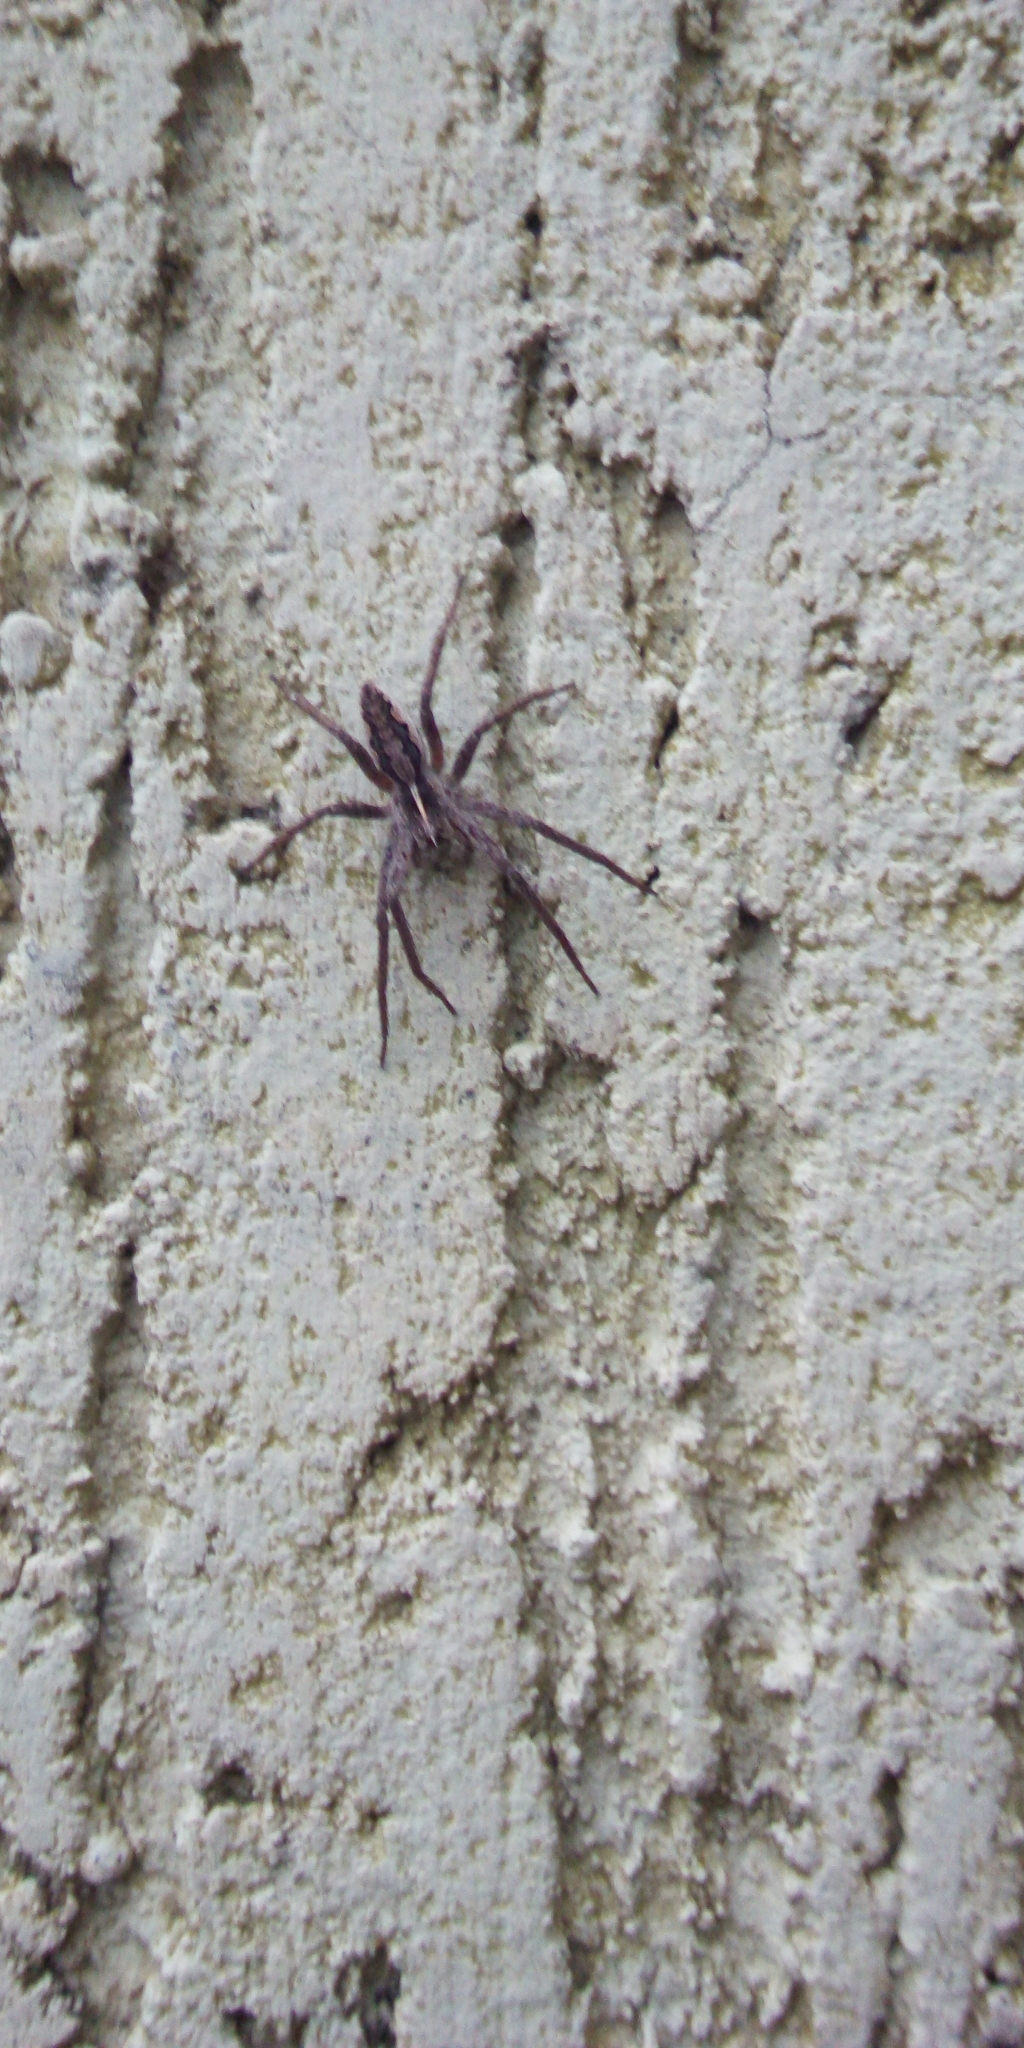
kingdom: Animalia
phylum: Arthropoda
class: Arachnida
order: Araneae
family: Pisauridae
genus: Pisaura
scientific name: Pisaura mirabilis
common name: Tent spider
